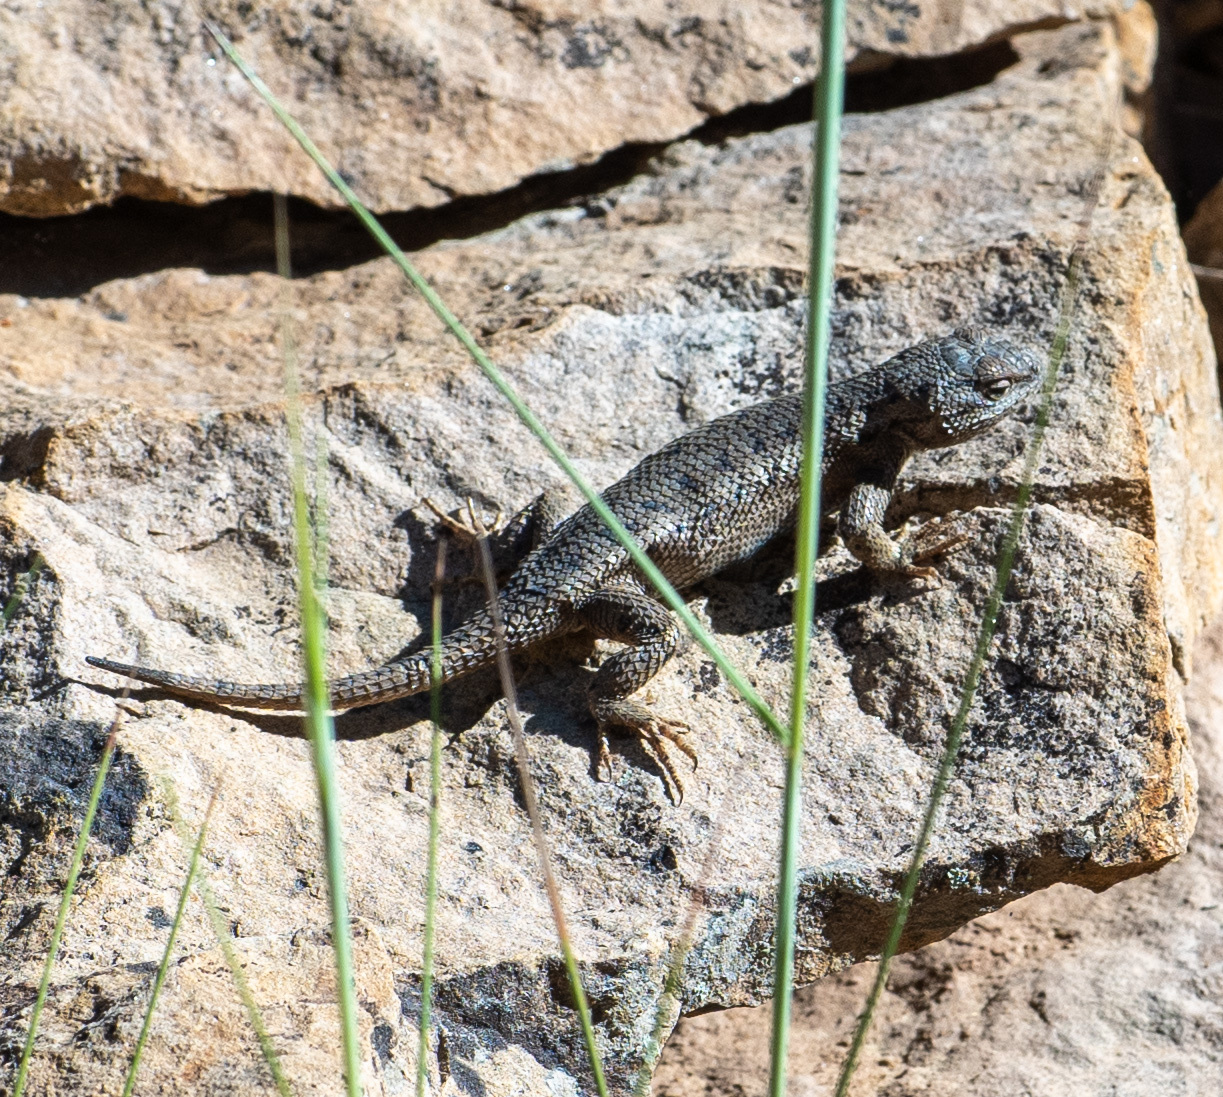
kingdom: Animalia
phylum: Chordata
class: Squamata
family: Phrynosomatidae
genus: Sceloporus
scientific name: Sceloporus tristichus
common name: Plateau fence lizard
